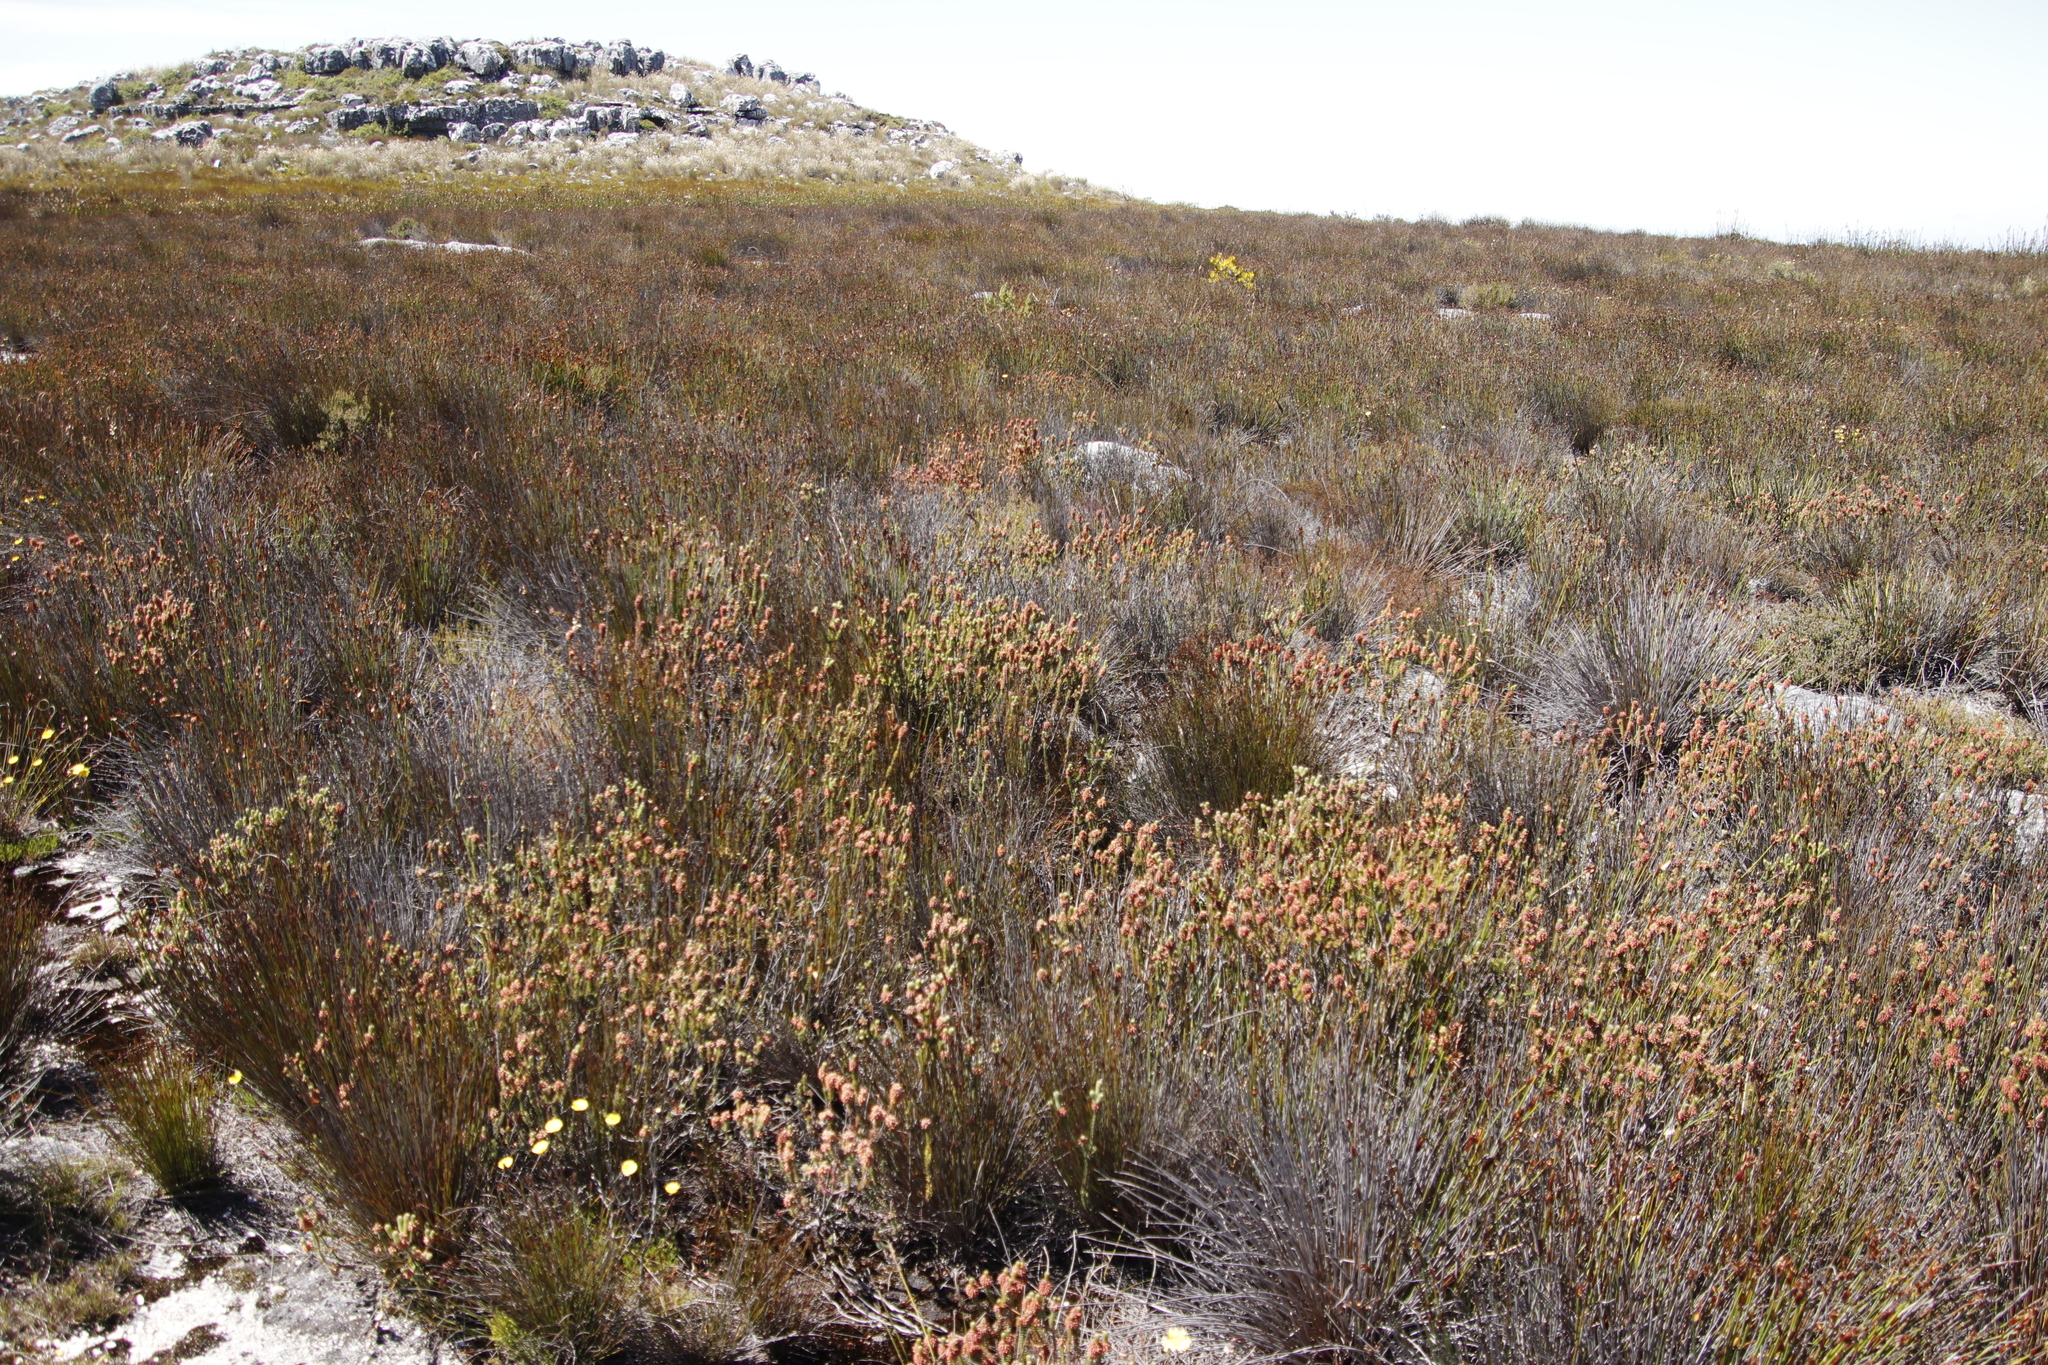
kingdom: Plantae
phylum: Tracheophyta
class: Magnoliopsida
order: Ericales
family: Ericaceae
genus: Erica
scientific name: Erica empetrina
